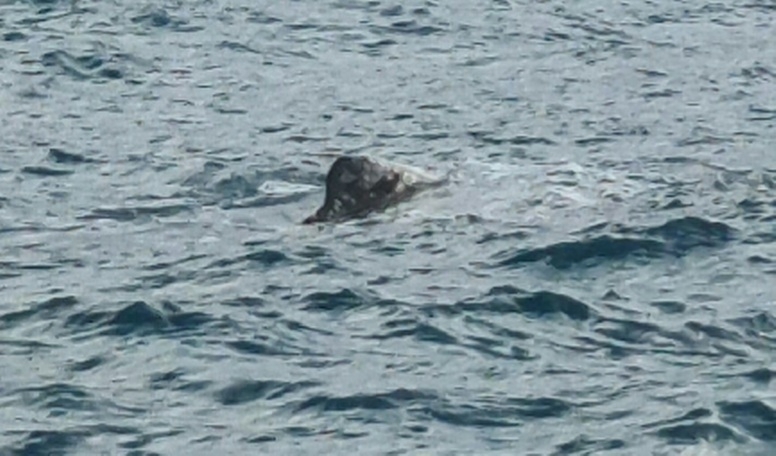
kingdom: Animalia
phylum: Chordata
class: Mammalia
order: Cetacea
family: Physeteridae
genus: Physeter
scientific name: Physeter macrocephalus
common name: Sperm whale
